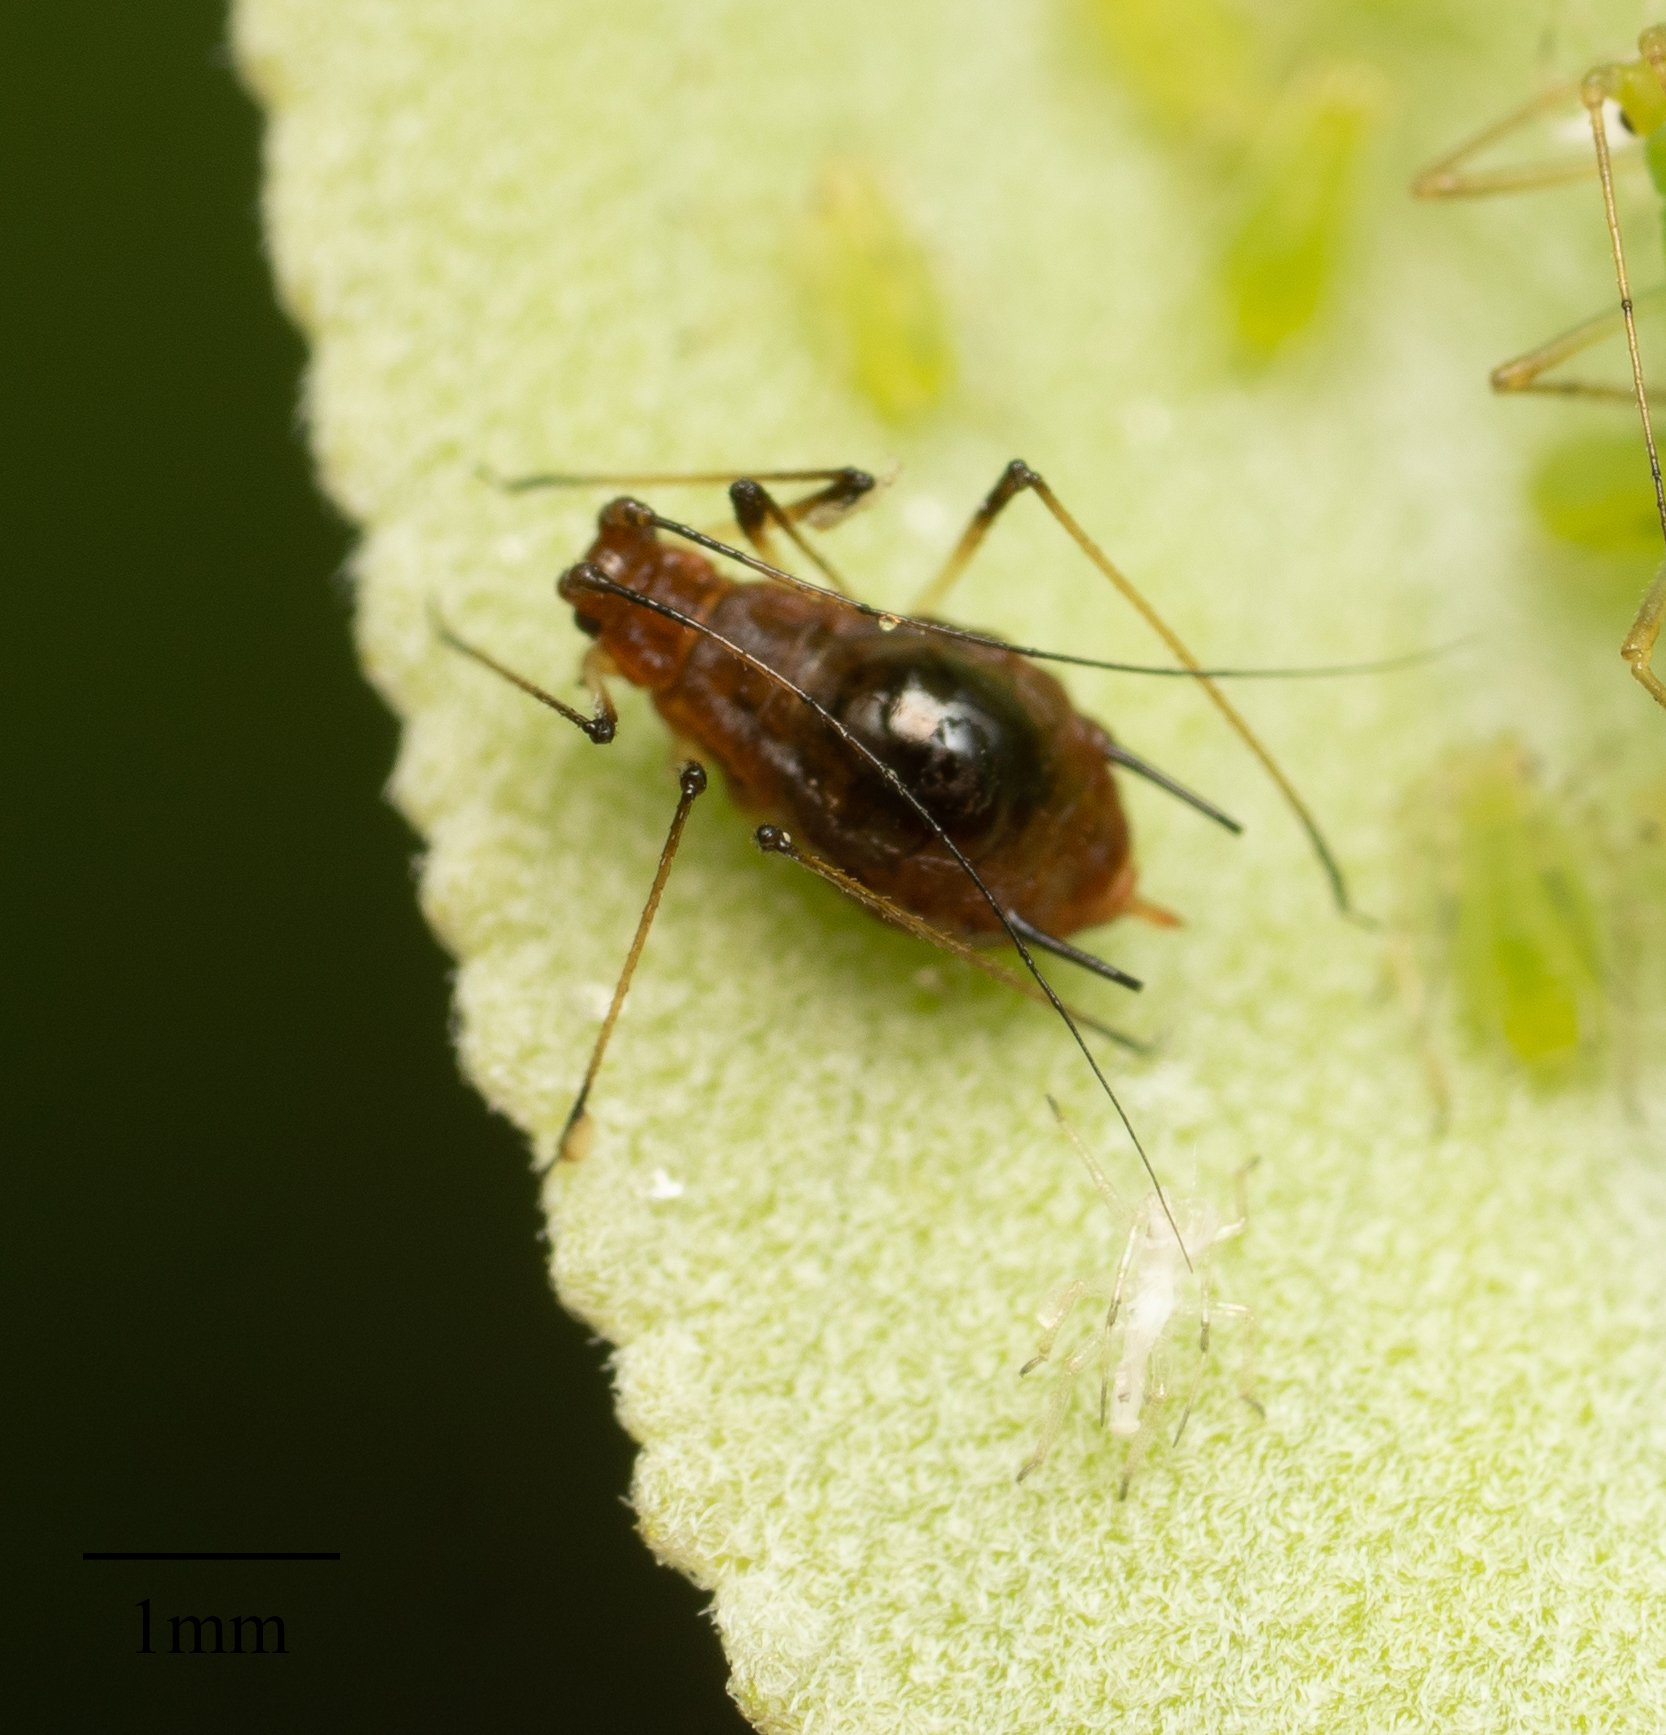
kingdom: Animalia
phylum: Arthropoda
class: Insecta
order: Hemiptera
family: Aphididae
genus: Macrosiphum
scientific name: Macrosiphum salviae
